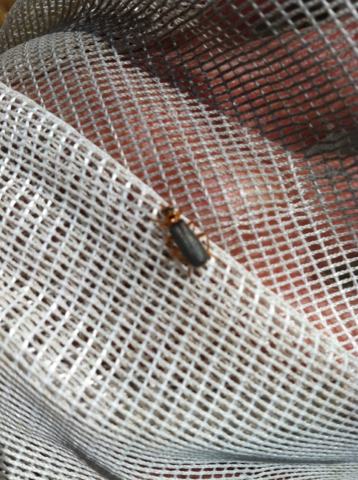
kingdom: Animalia
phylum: Arthropoda
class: Insecta
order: Coleoptera
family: Cantharidae
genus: Cultellunguis
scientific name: Cultellunguis americanus
